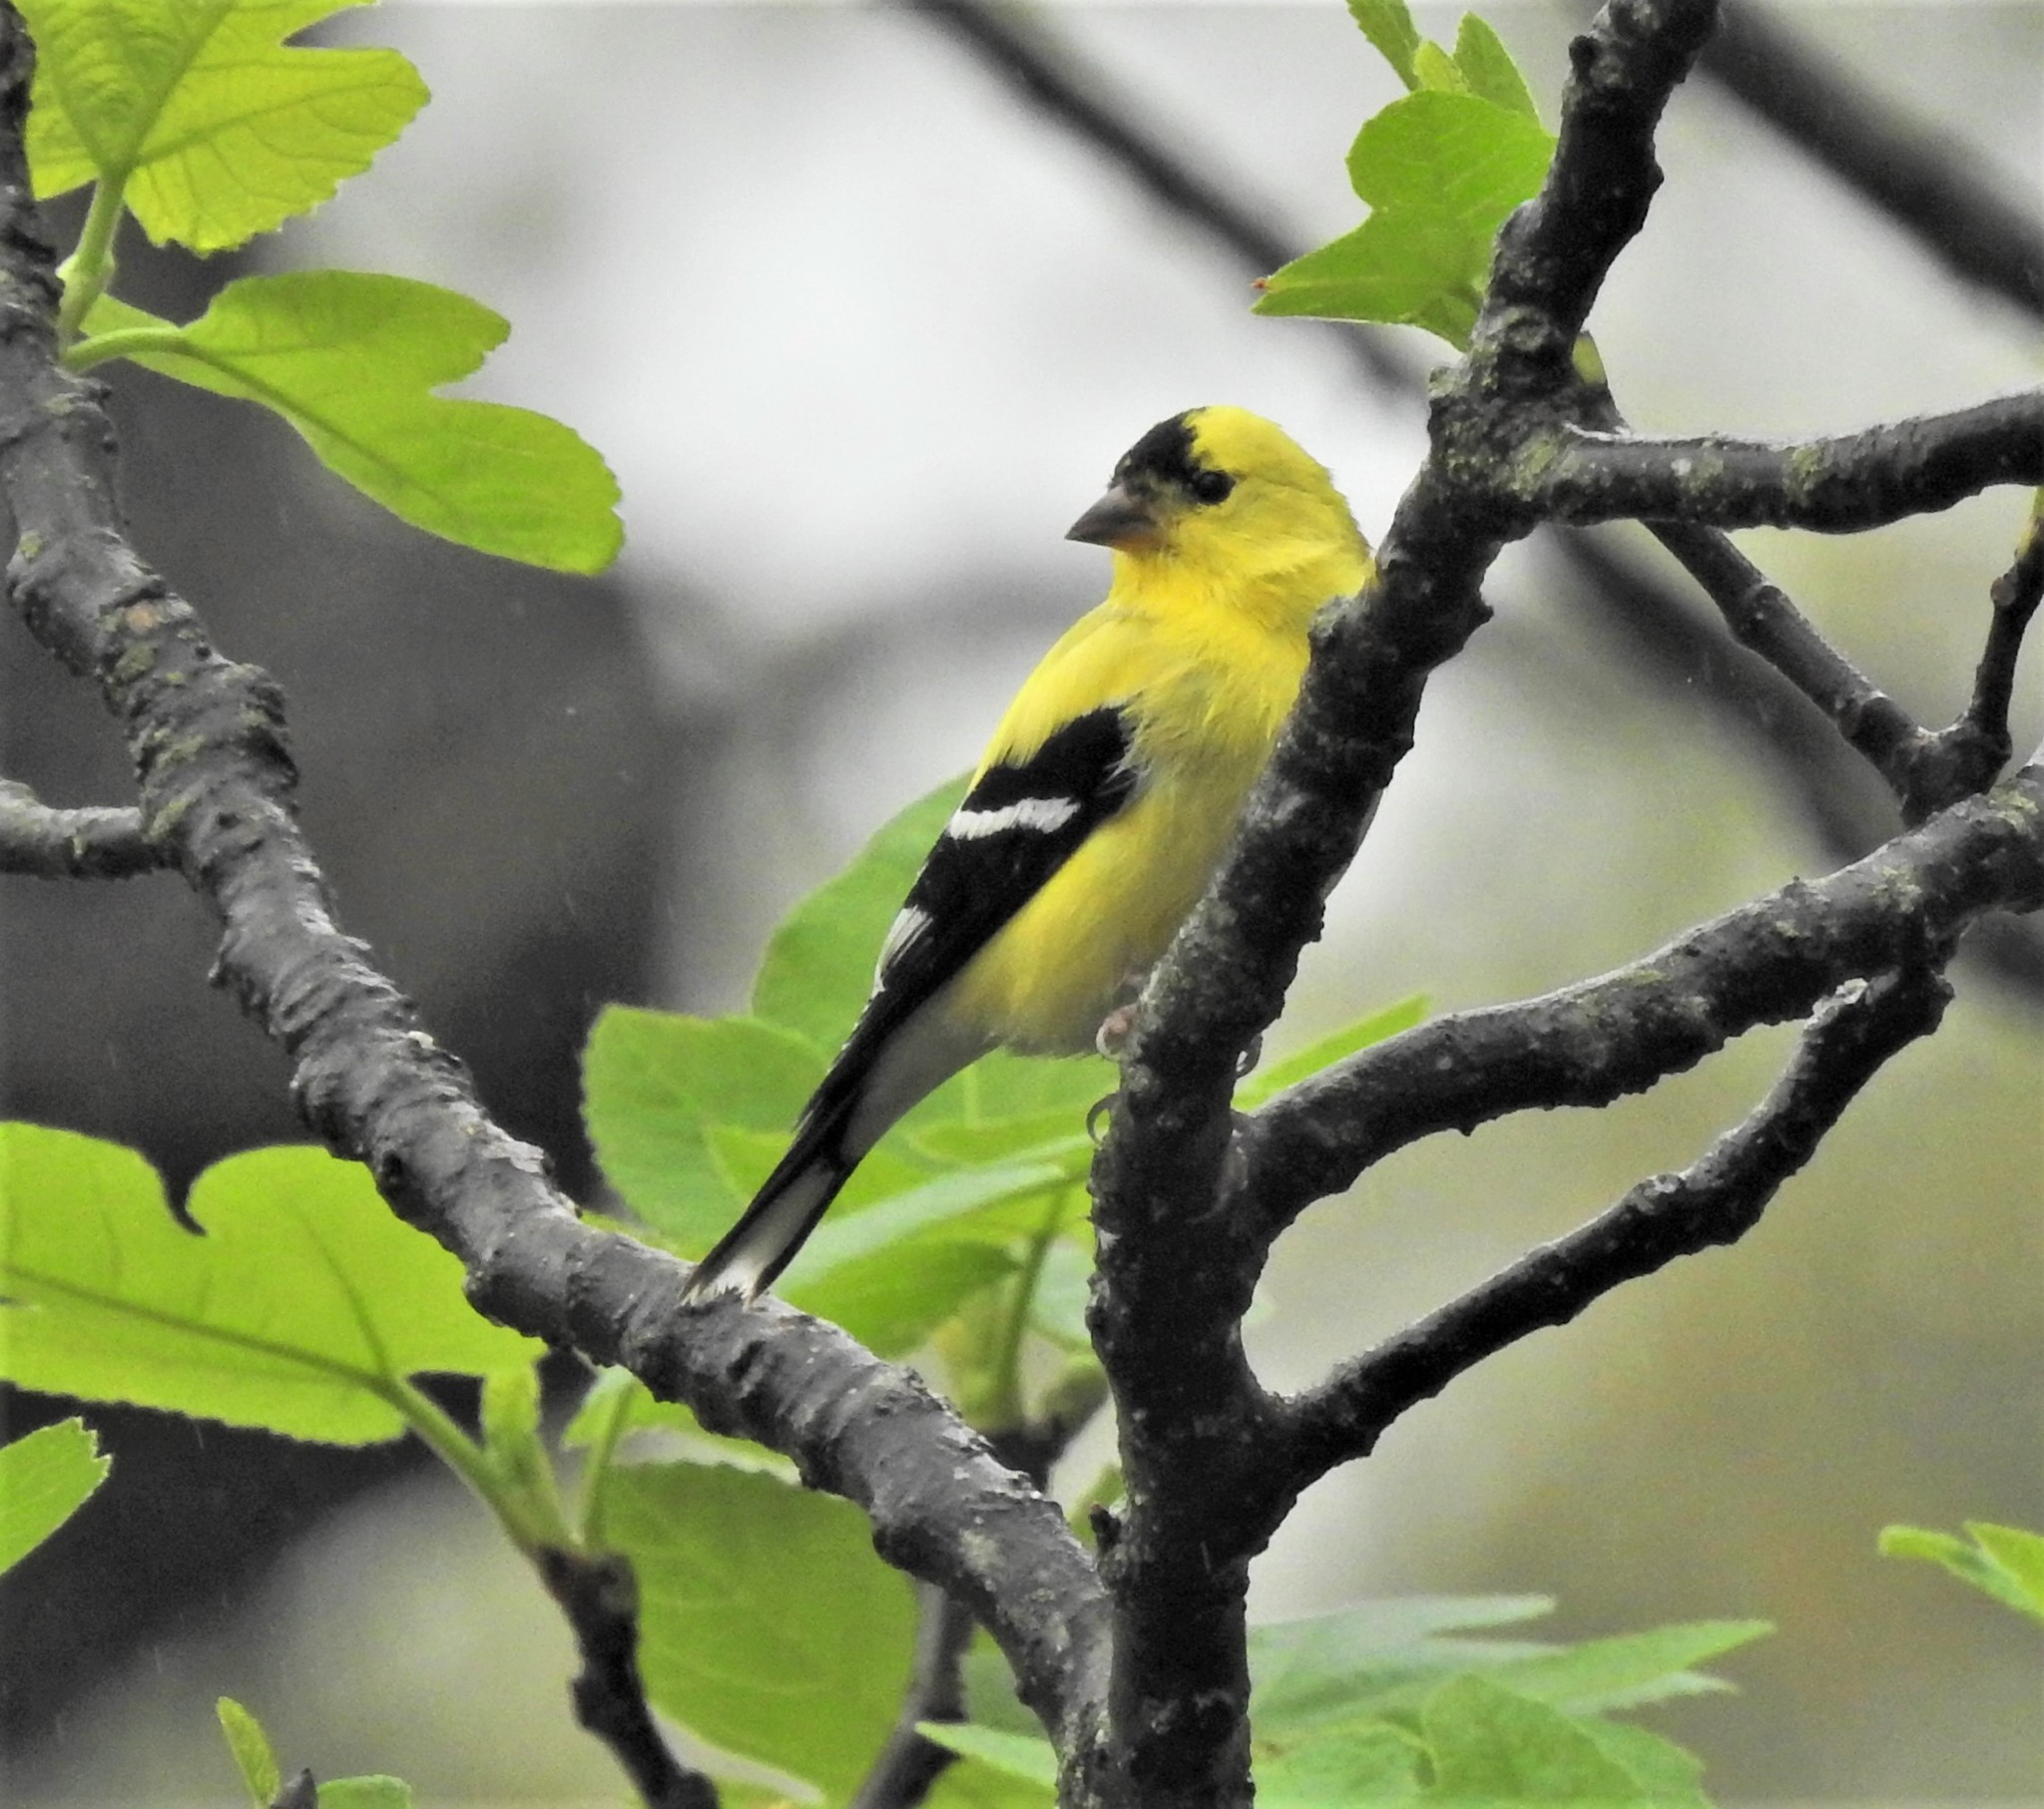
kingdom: Animalia
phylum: Chordata
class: Aves
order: Passeriformes
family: Fringillidae
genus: Spinus
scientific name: Spinus tristis
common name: American goldfinch
